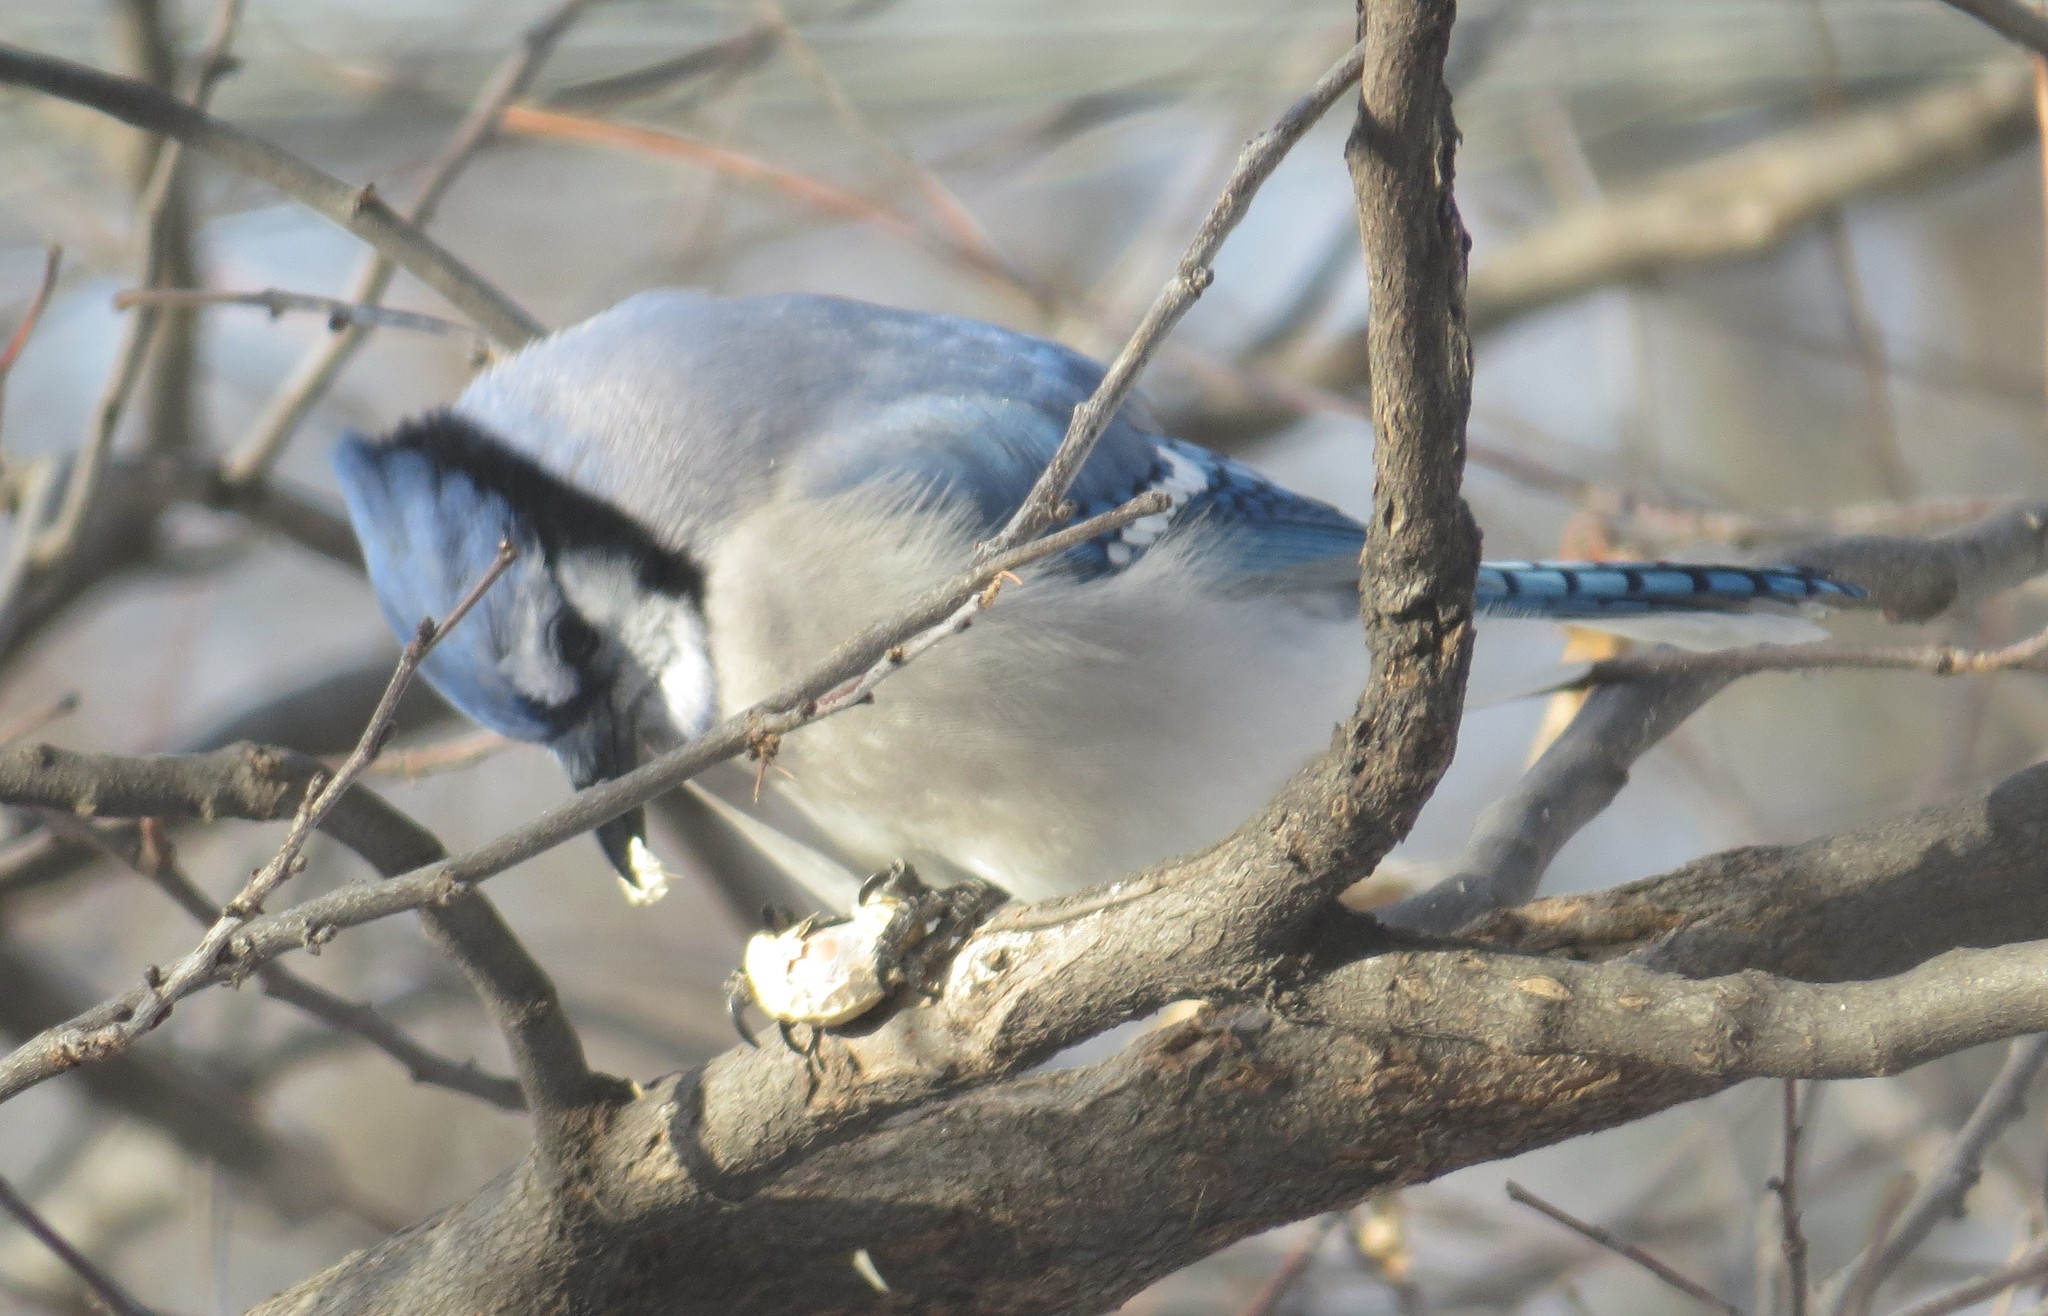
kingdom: Animalia
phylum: Chordata
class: Aves
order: Passeriformes
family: Corvidae
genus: Cyanocitta
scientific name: Cyanocitta cristata
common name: Blue jay
